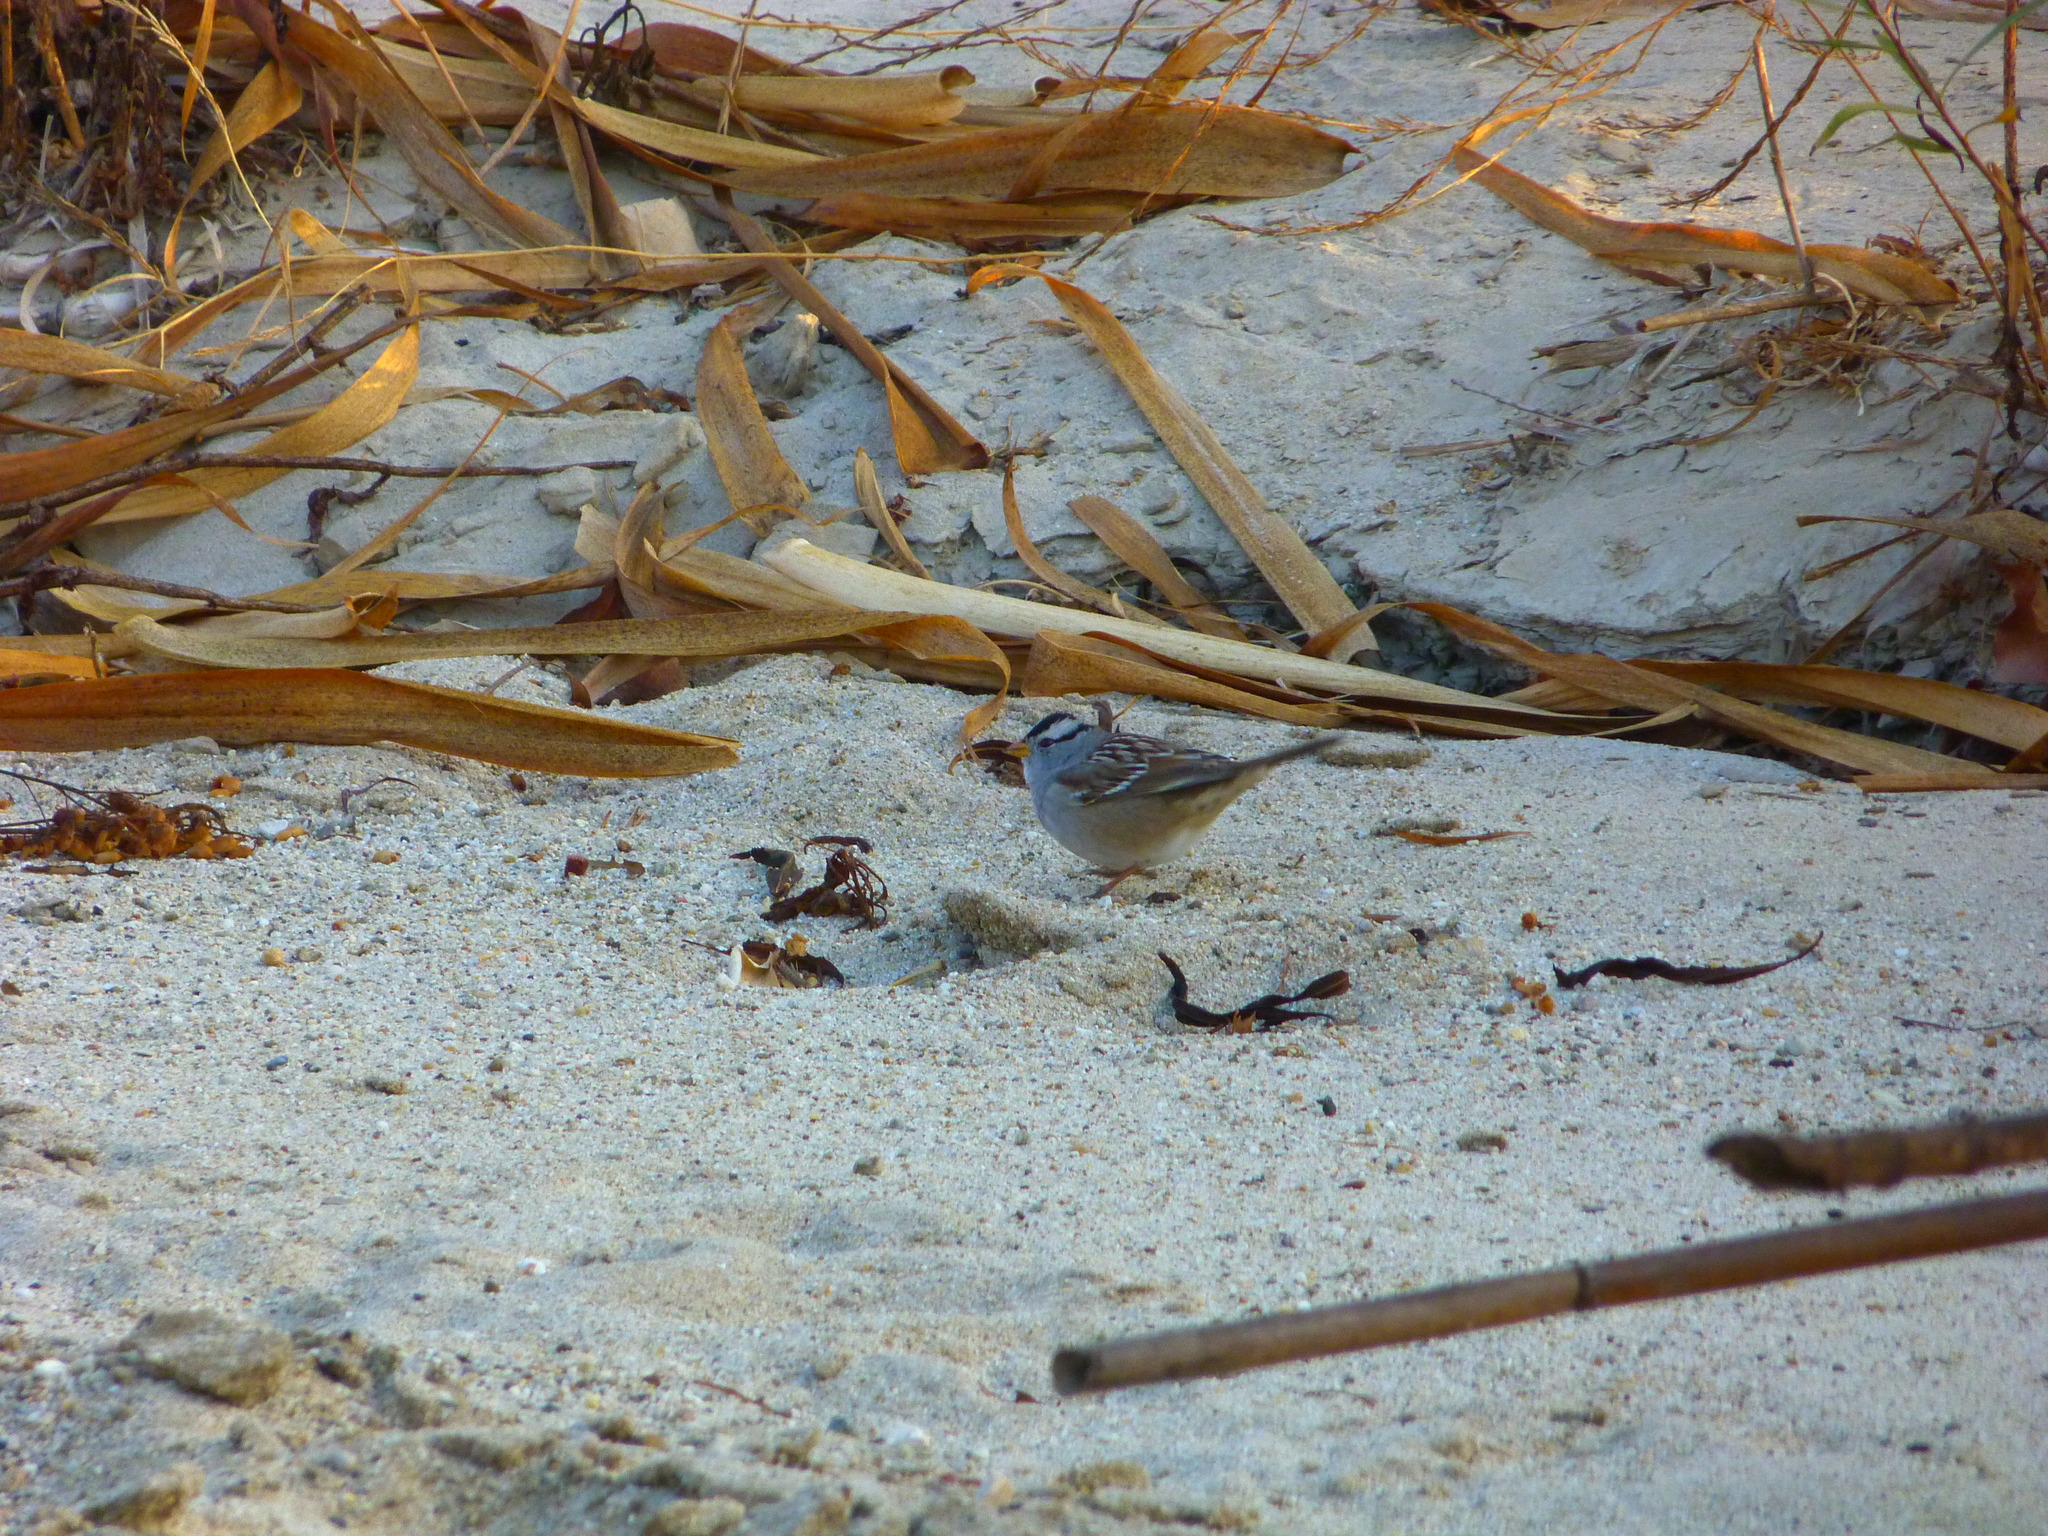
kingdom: Animalia
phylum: Chordata
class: Aves
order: Passeriformes
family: Passerellidae
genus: Zonotrichia
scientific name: Zonotrichia leucophrys
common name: White-crowned sparrow
